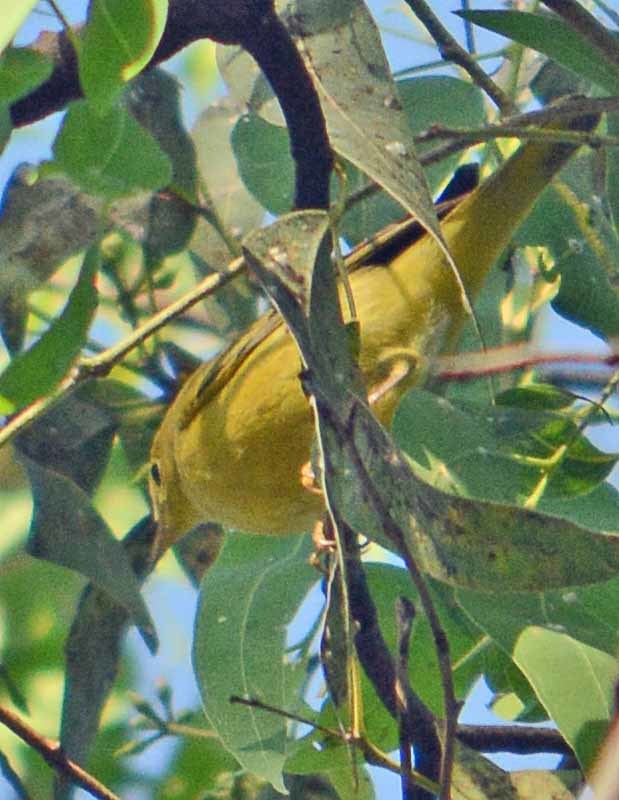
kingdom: Animalia
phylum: Chordata
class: Aves
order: Passeriformes
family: Parulidae
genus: Setophaga
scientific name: Setophaga petechia
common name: Yellow warbler
